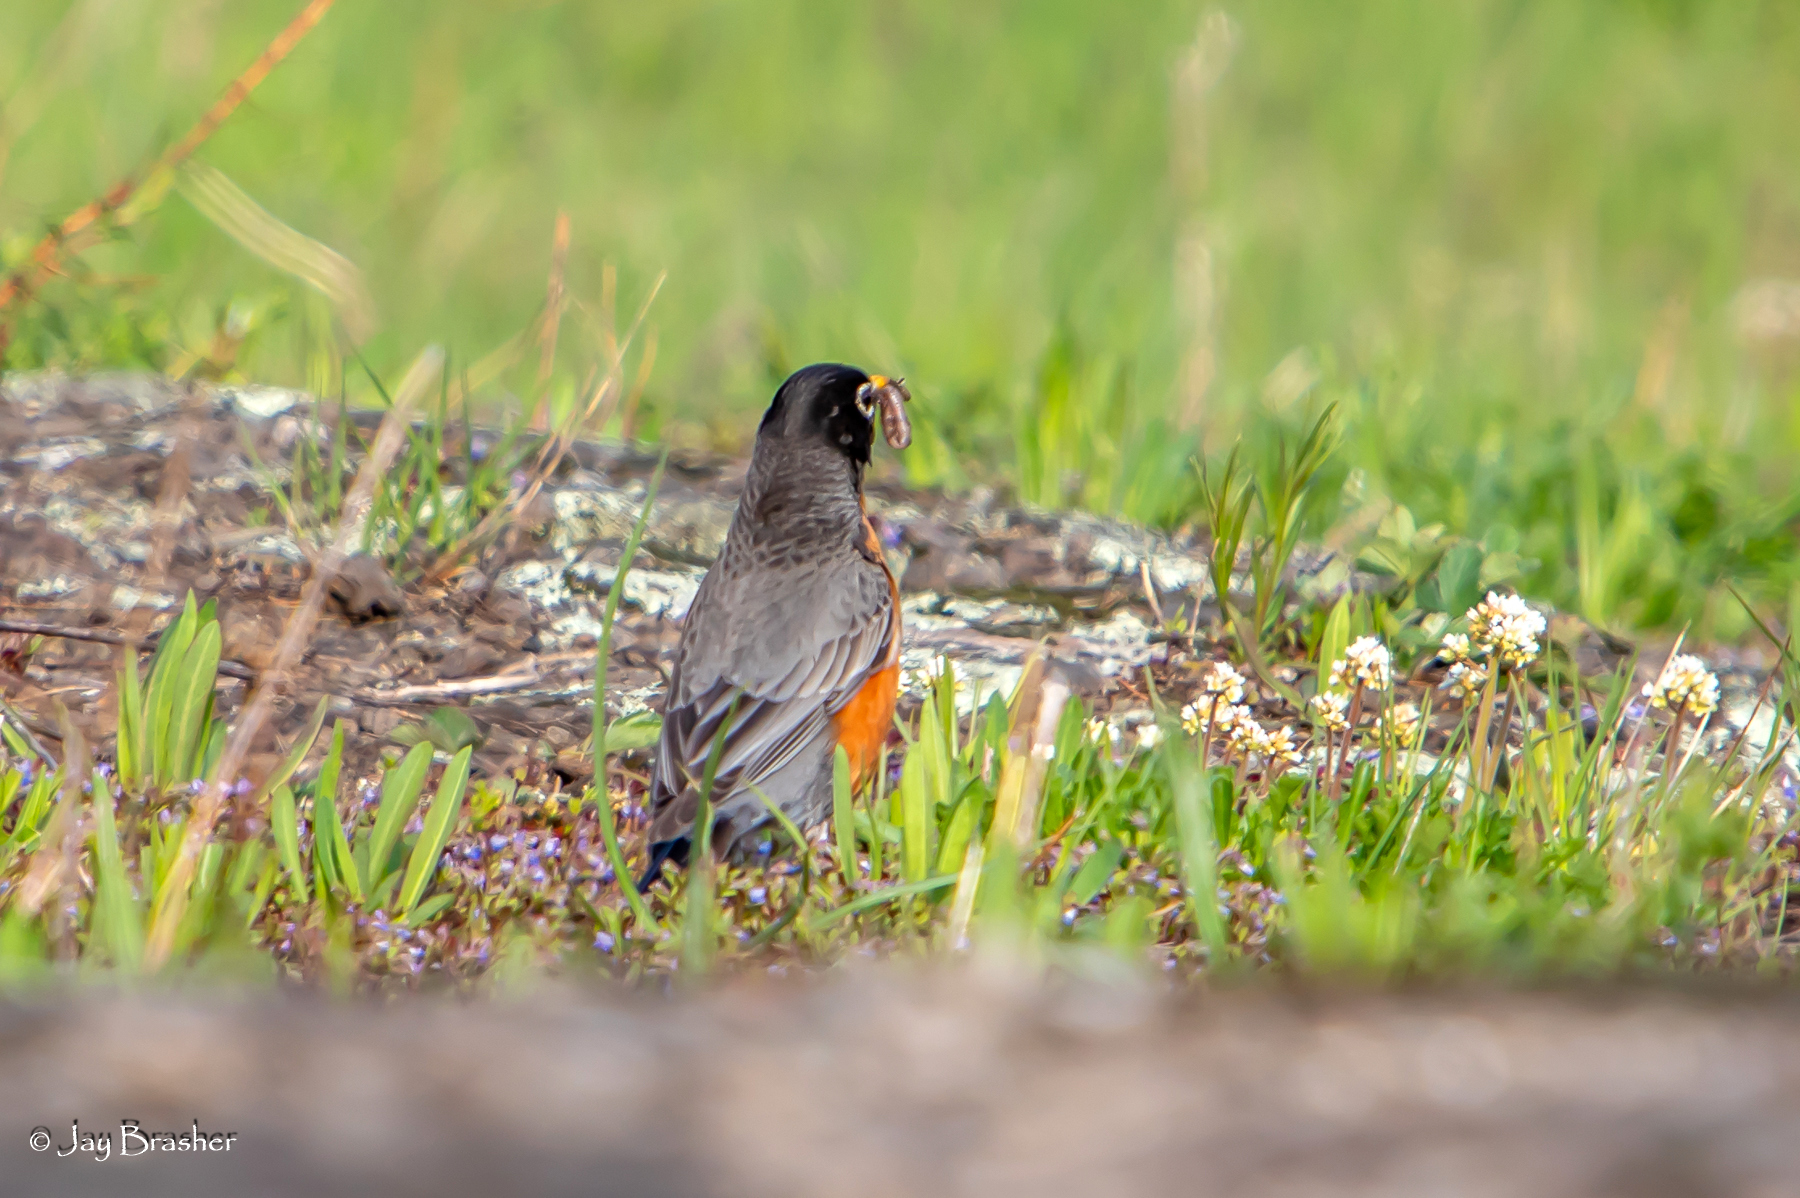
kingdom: Animalia
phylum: Chordata
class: Aves
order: Passeriformes
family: Turdidae
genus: Turdus
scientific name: Turdus migratorius
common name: American robin
